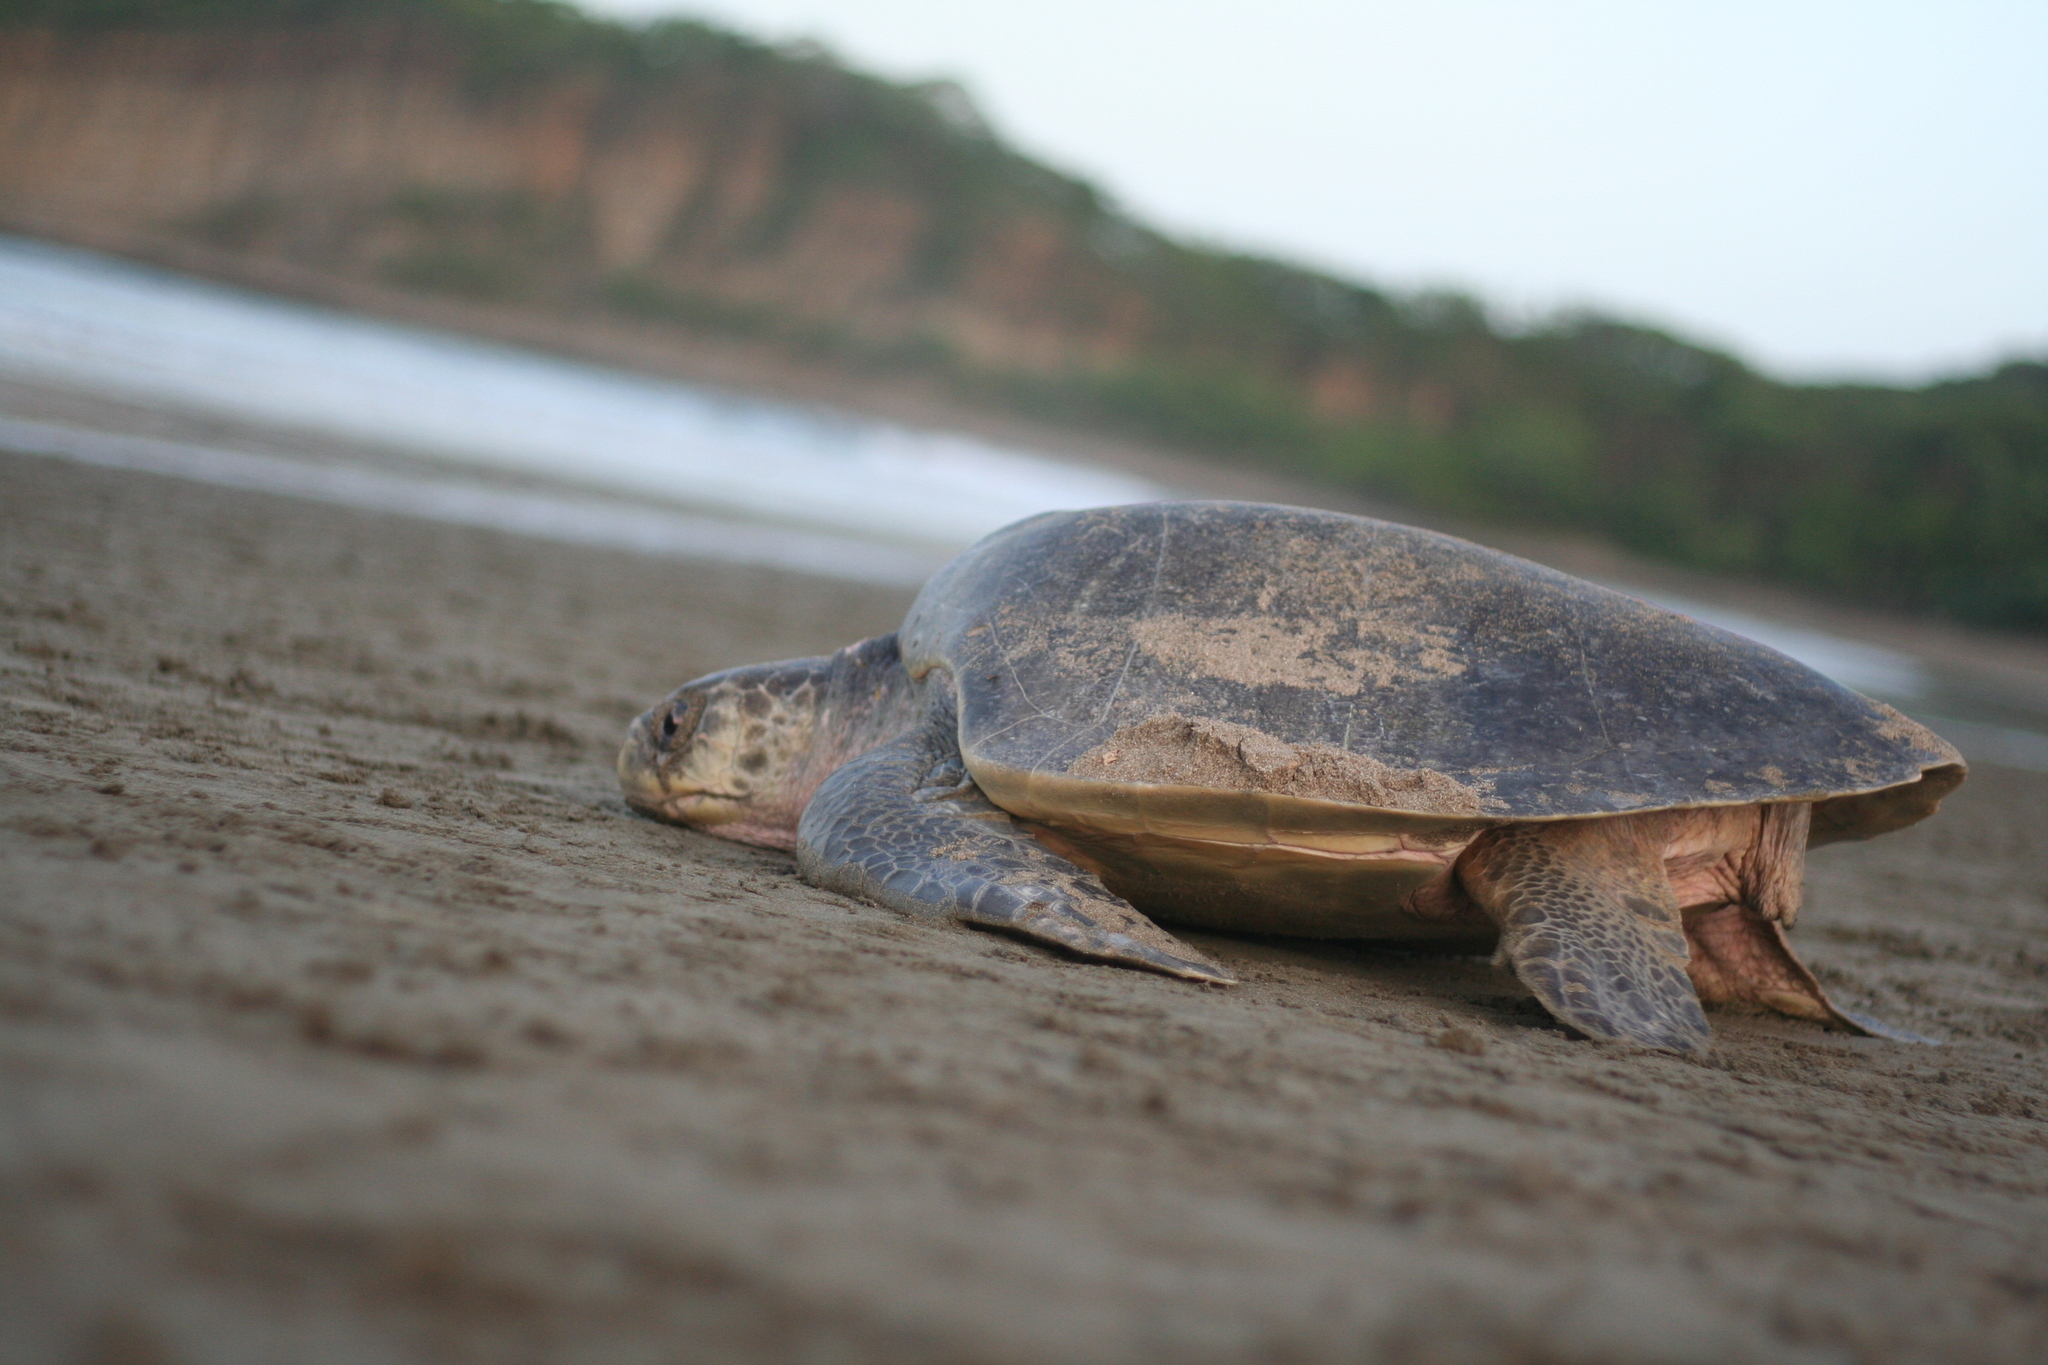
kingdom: Animalia
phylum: Chordata
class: Testudines
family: Cheloniidae
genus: Lepidochelys
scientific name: Lepidochelys olivacea
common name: Olive ridley
